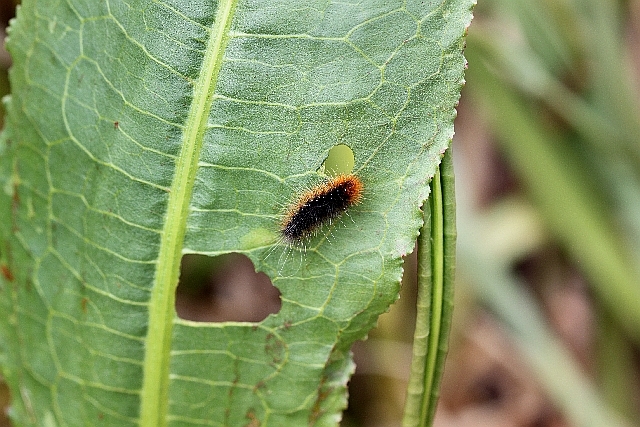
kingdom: Animalia
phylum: Arthropoda
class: Insecta
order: Lepidoptera
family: Erebidae
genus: Arctia
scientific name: Arctia caja
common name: Garden tiger
